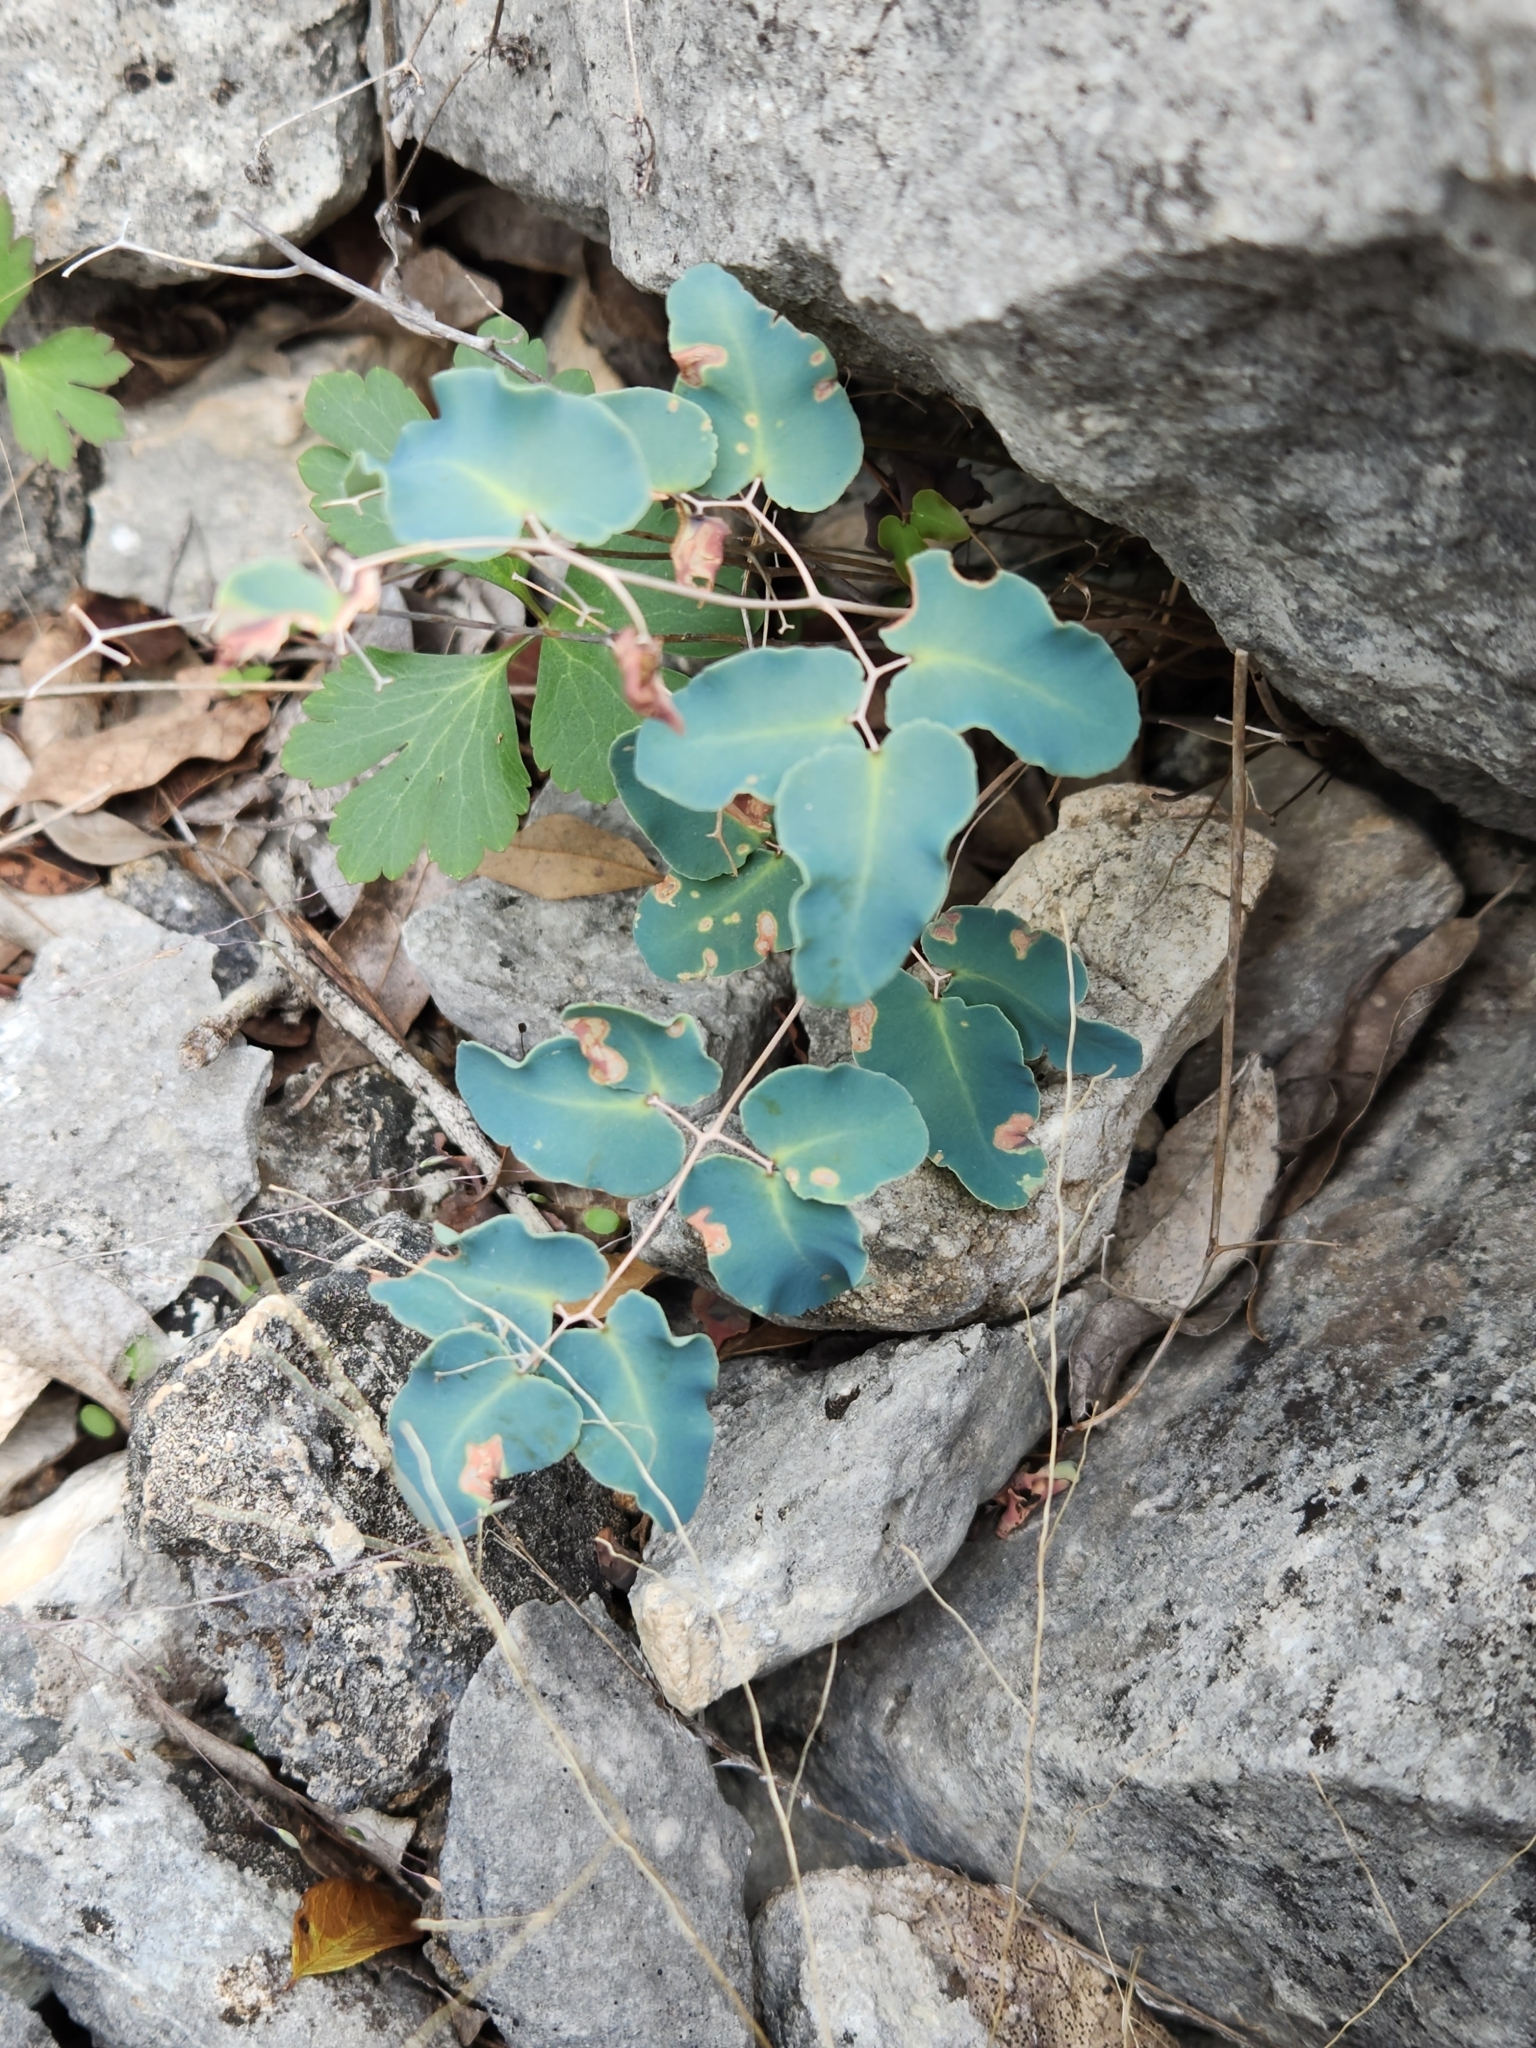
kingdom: Plantae
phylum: Tracheophyta
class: Polypodiopsida
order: Polypodiales
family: Pteridaceae
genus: Pellaea
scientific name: Pellaea ovata
